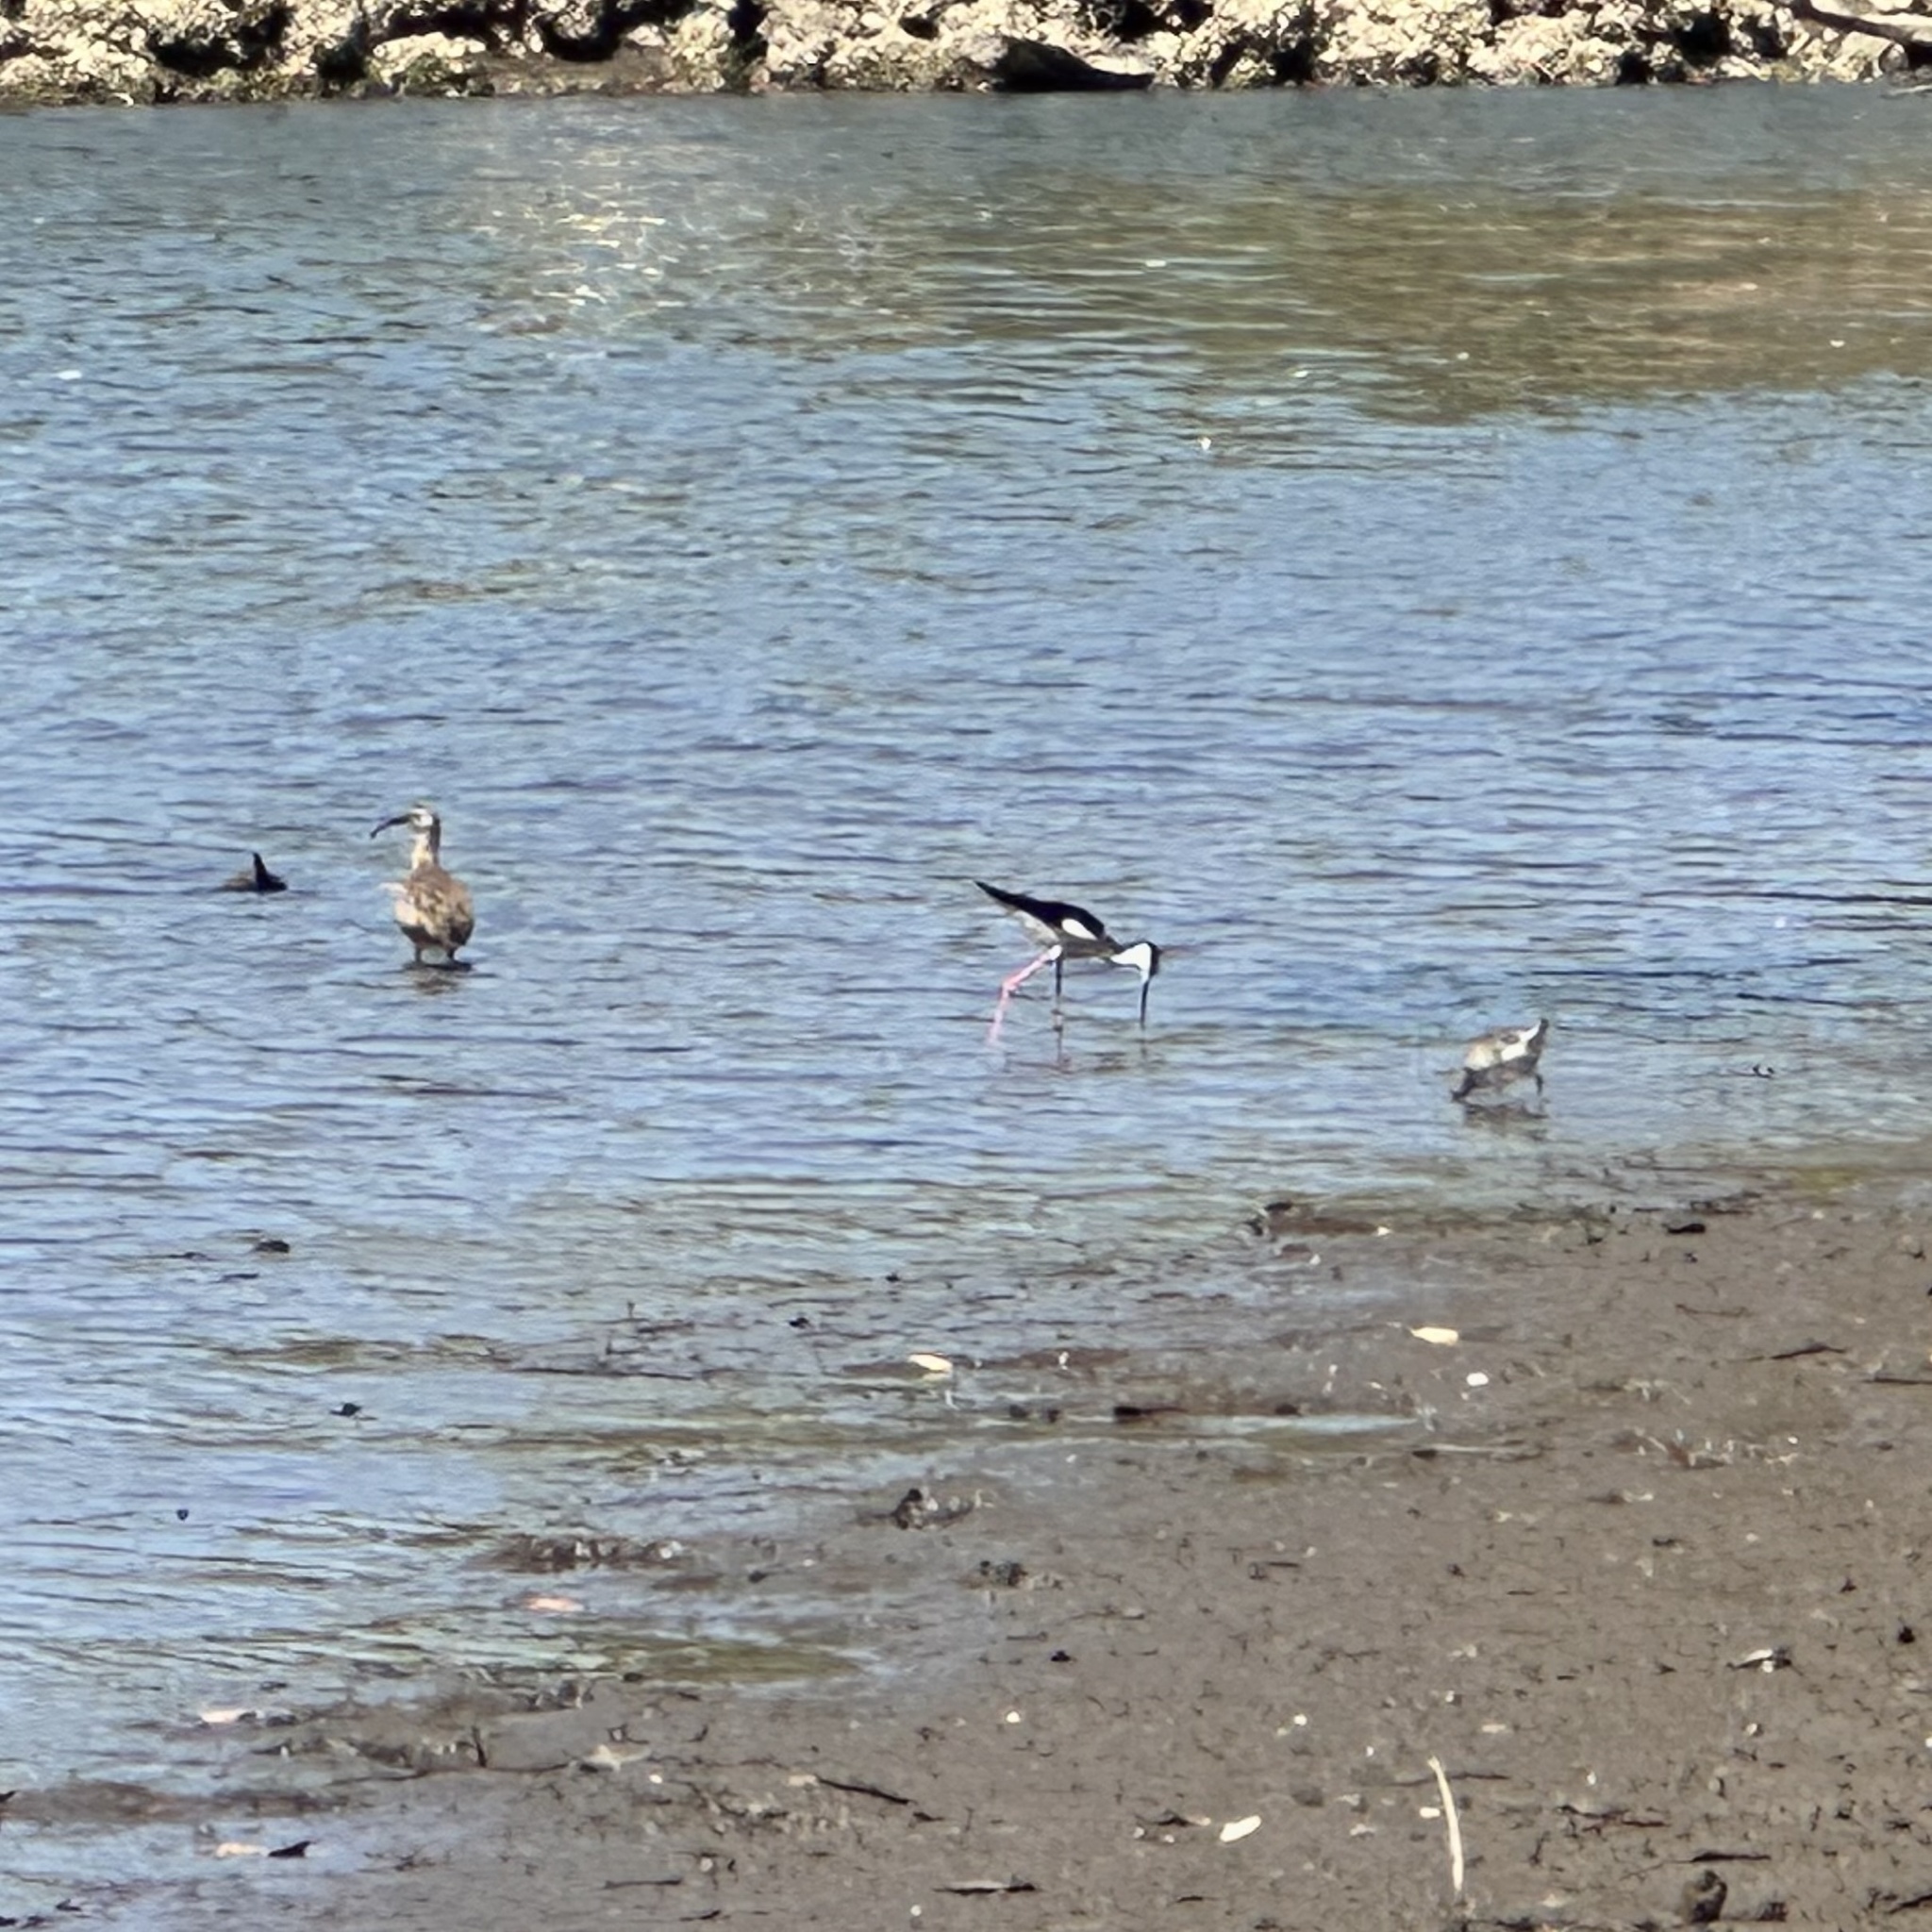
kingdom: Animalia
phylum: Chordata
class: Aves
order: Charadriiformes
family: Recurvirostridae
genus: Himantopus
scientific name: Himantopus mexicanus
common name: Black-necked stilt
